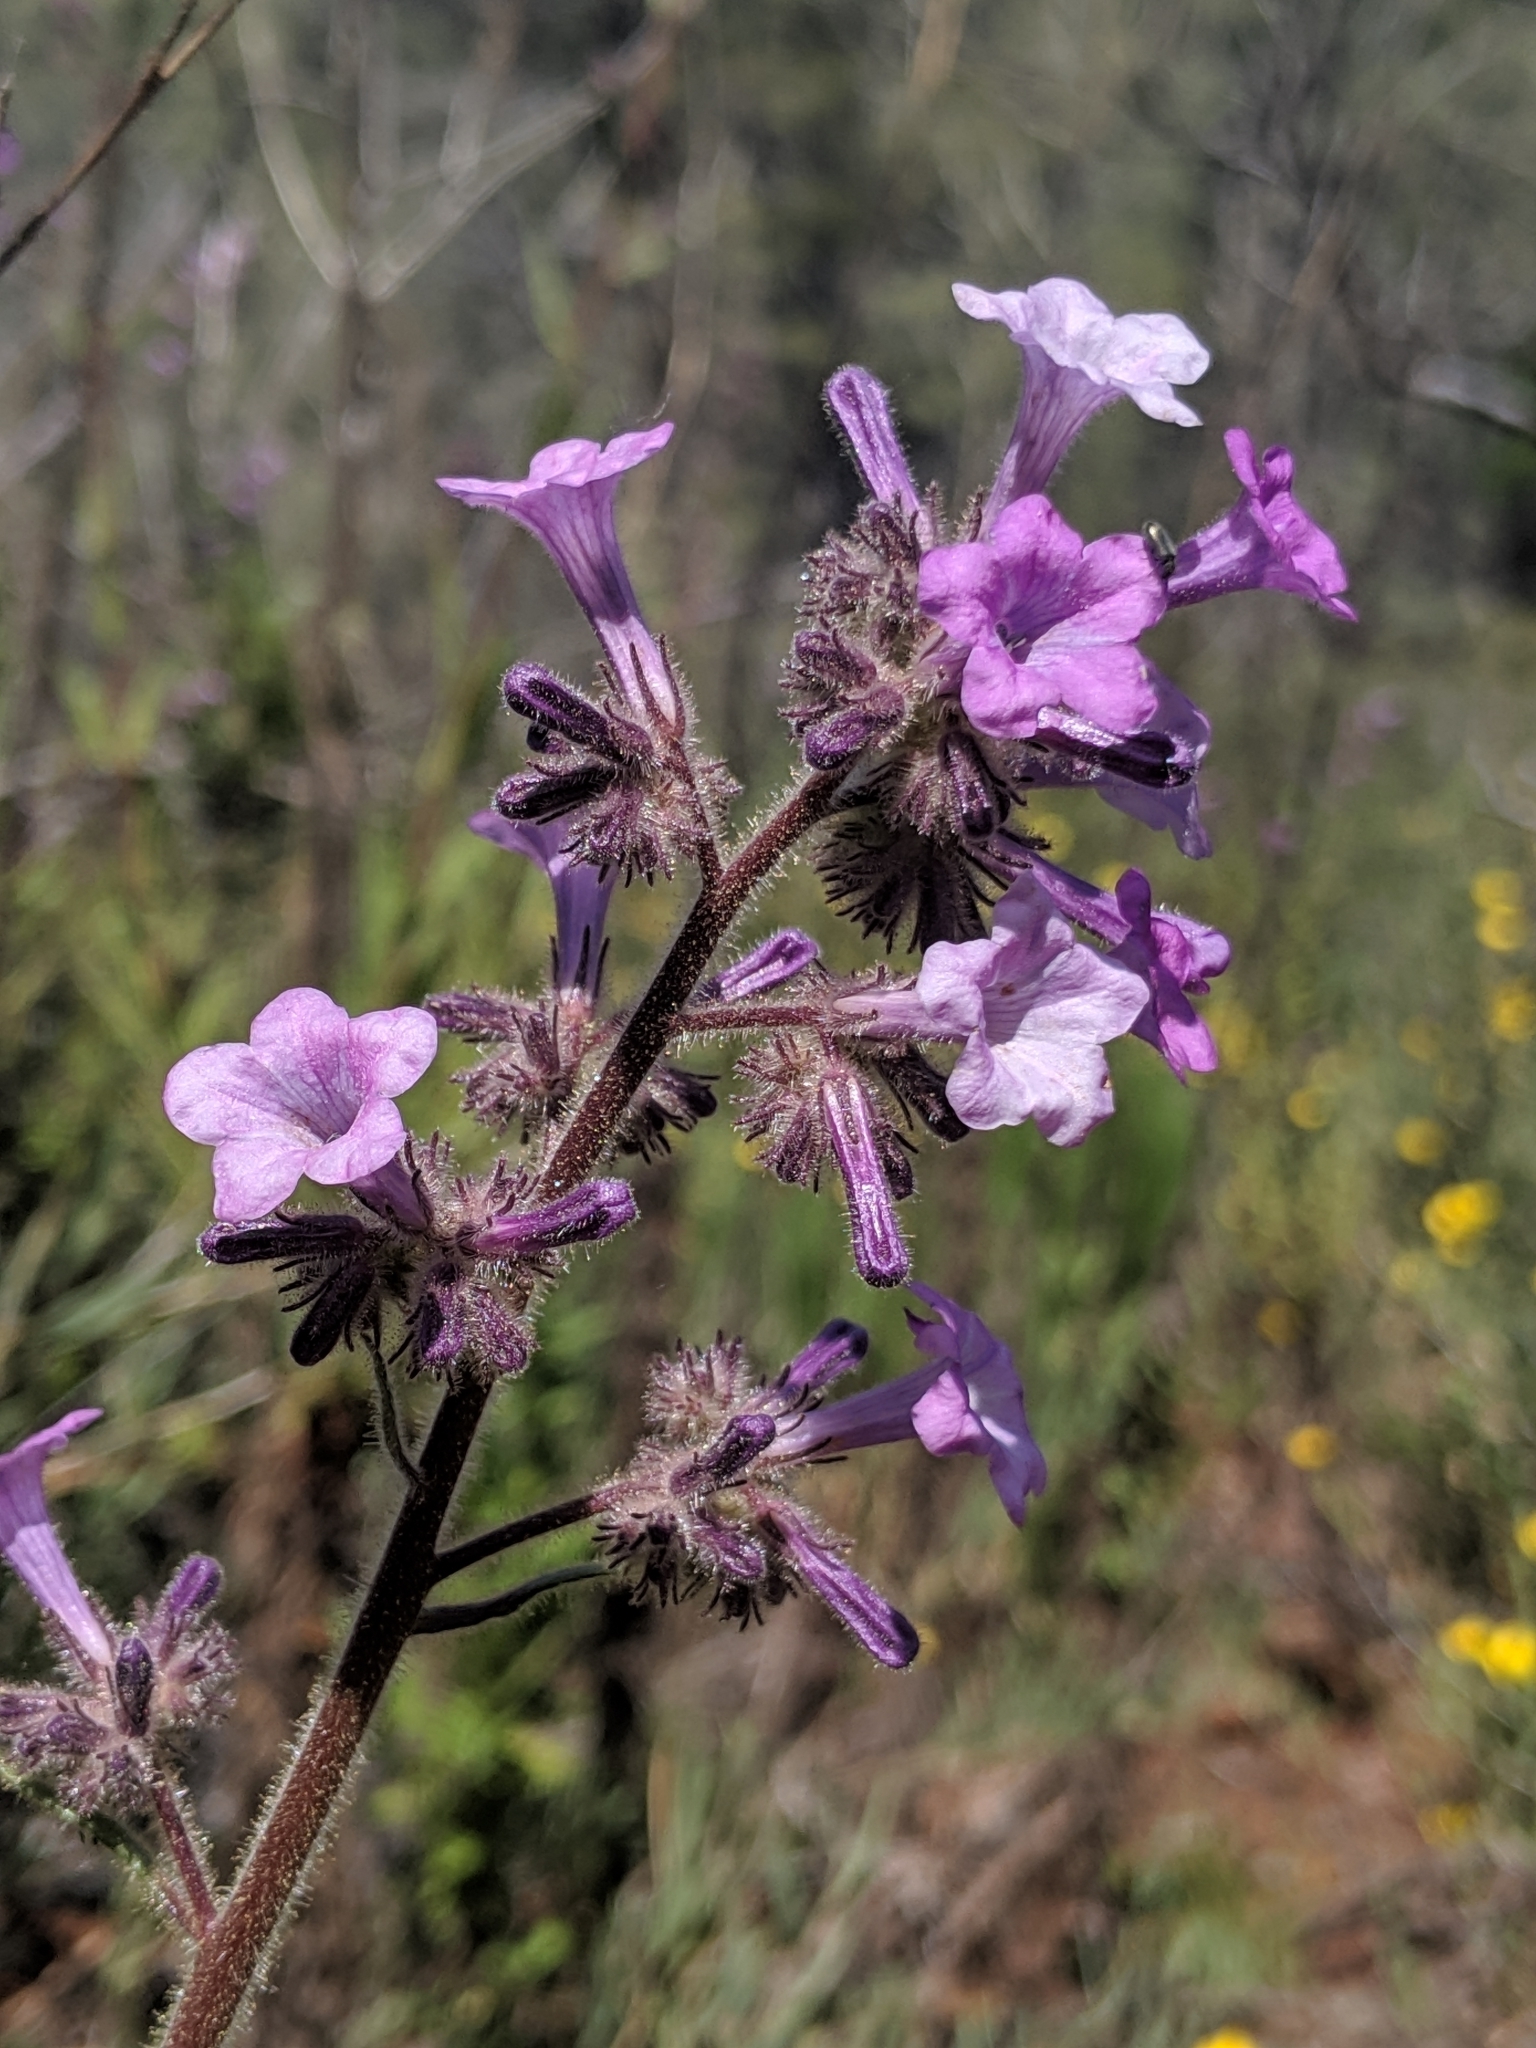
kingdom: Plantae
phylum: Tracheophyta
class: Magnoliopsida
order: Boraginales
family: Namaceae
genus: Turricula
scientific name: Turricula parryi
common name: Poodle-dog-bush
